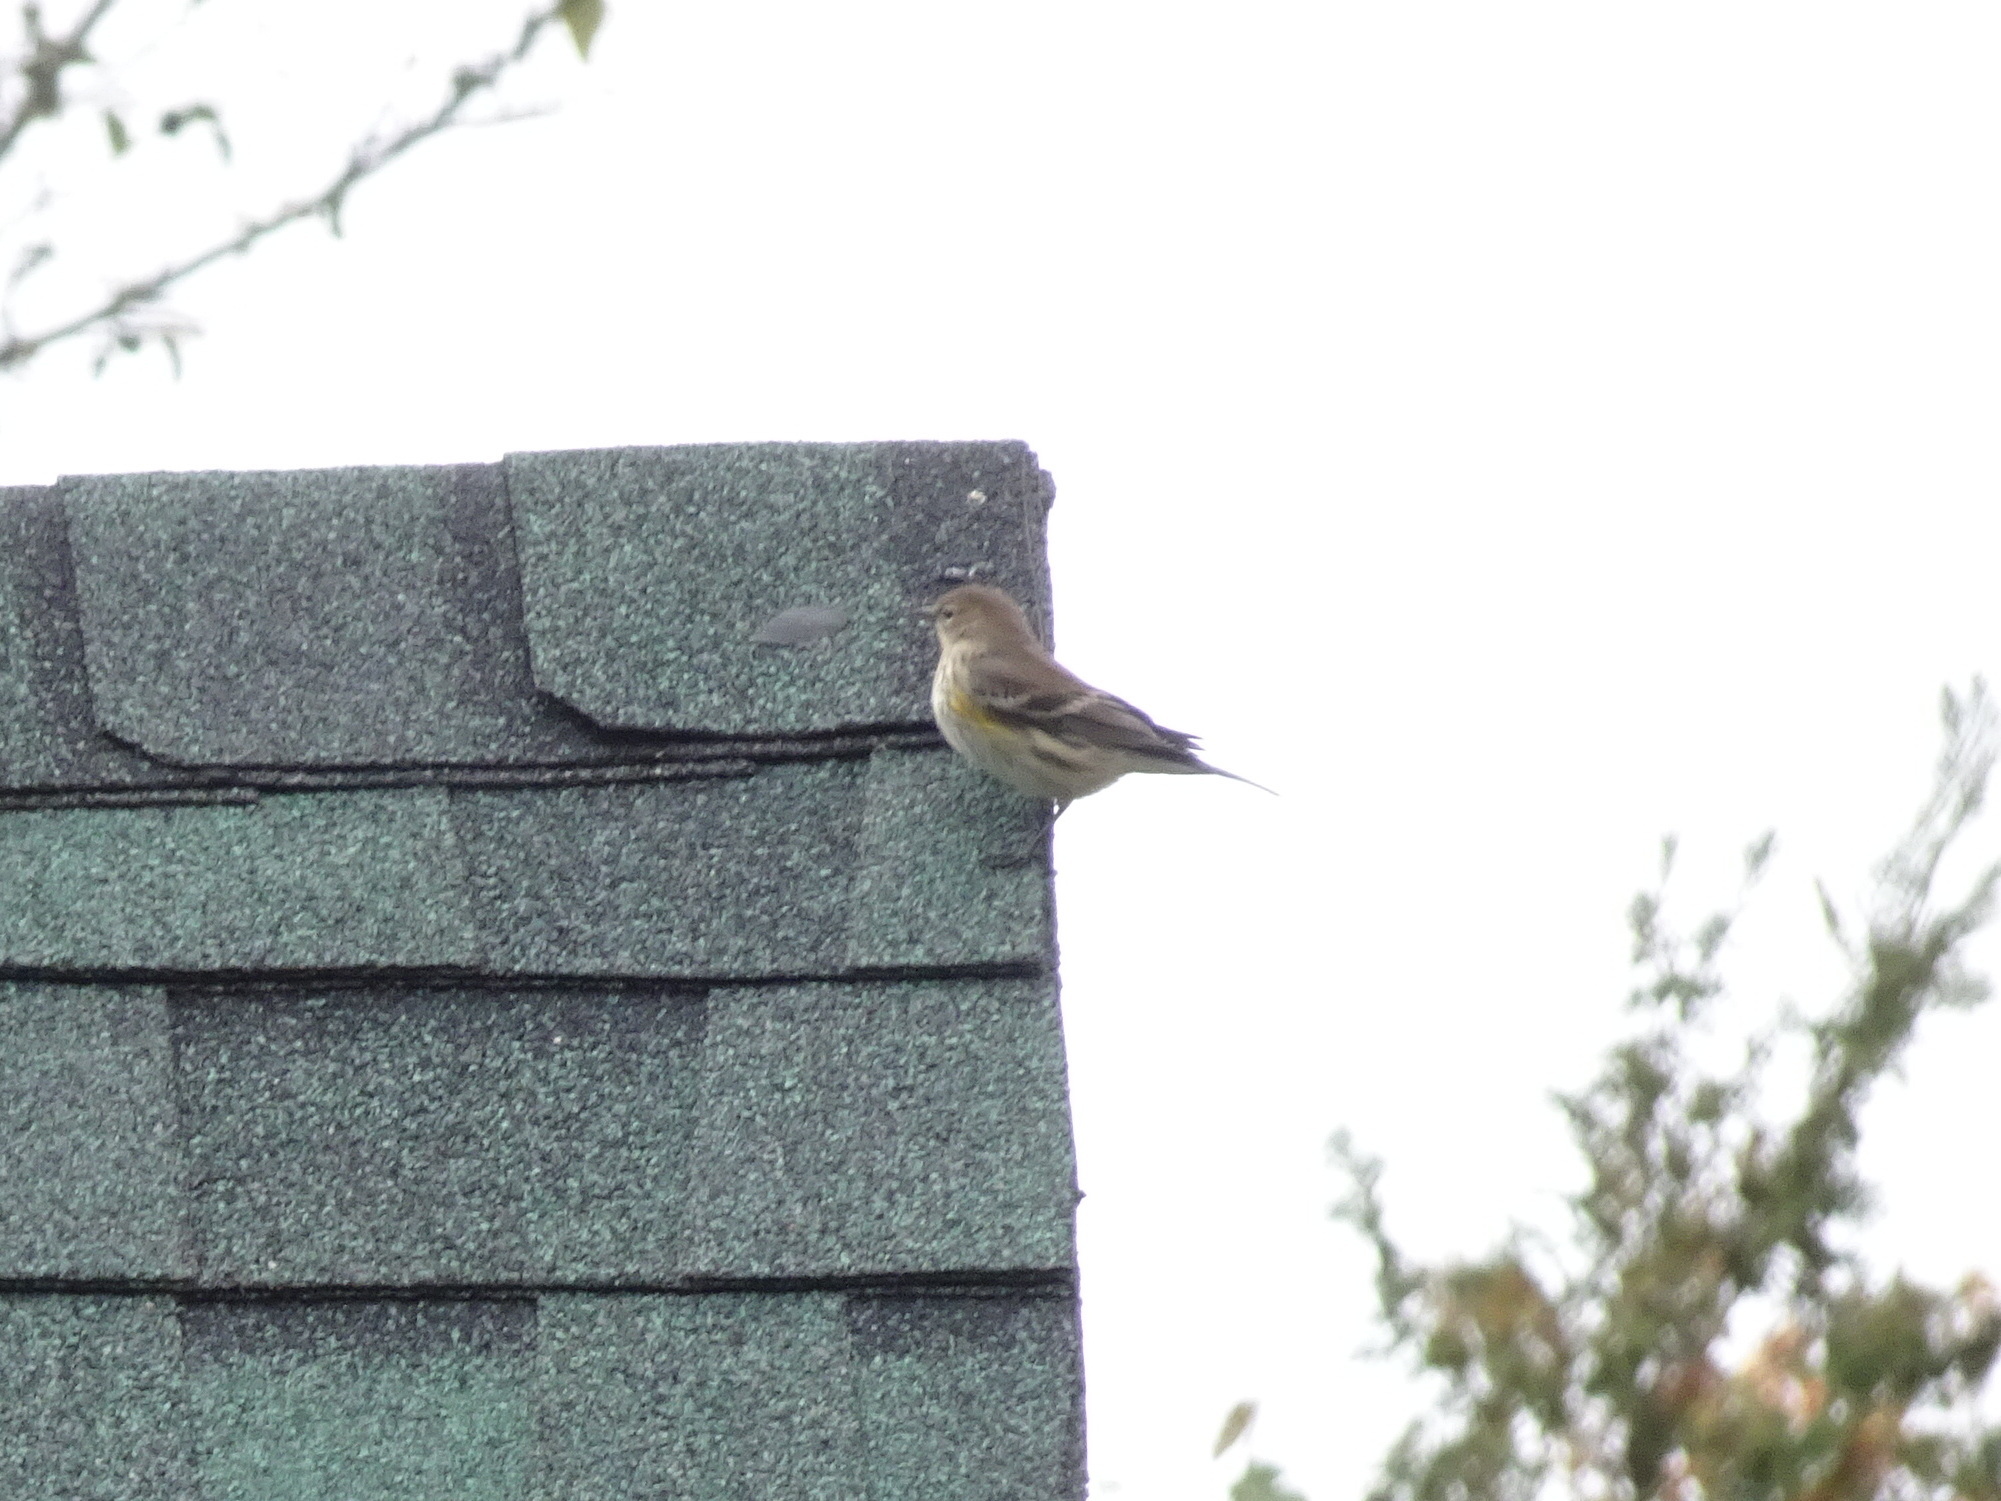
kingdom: Animalia
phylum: Chordata
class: Aves
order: Passeriformes
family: Parulidae
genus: Setophaga
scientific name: Setophaga coronata
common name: Myrtle warbler
